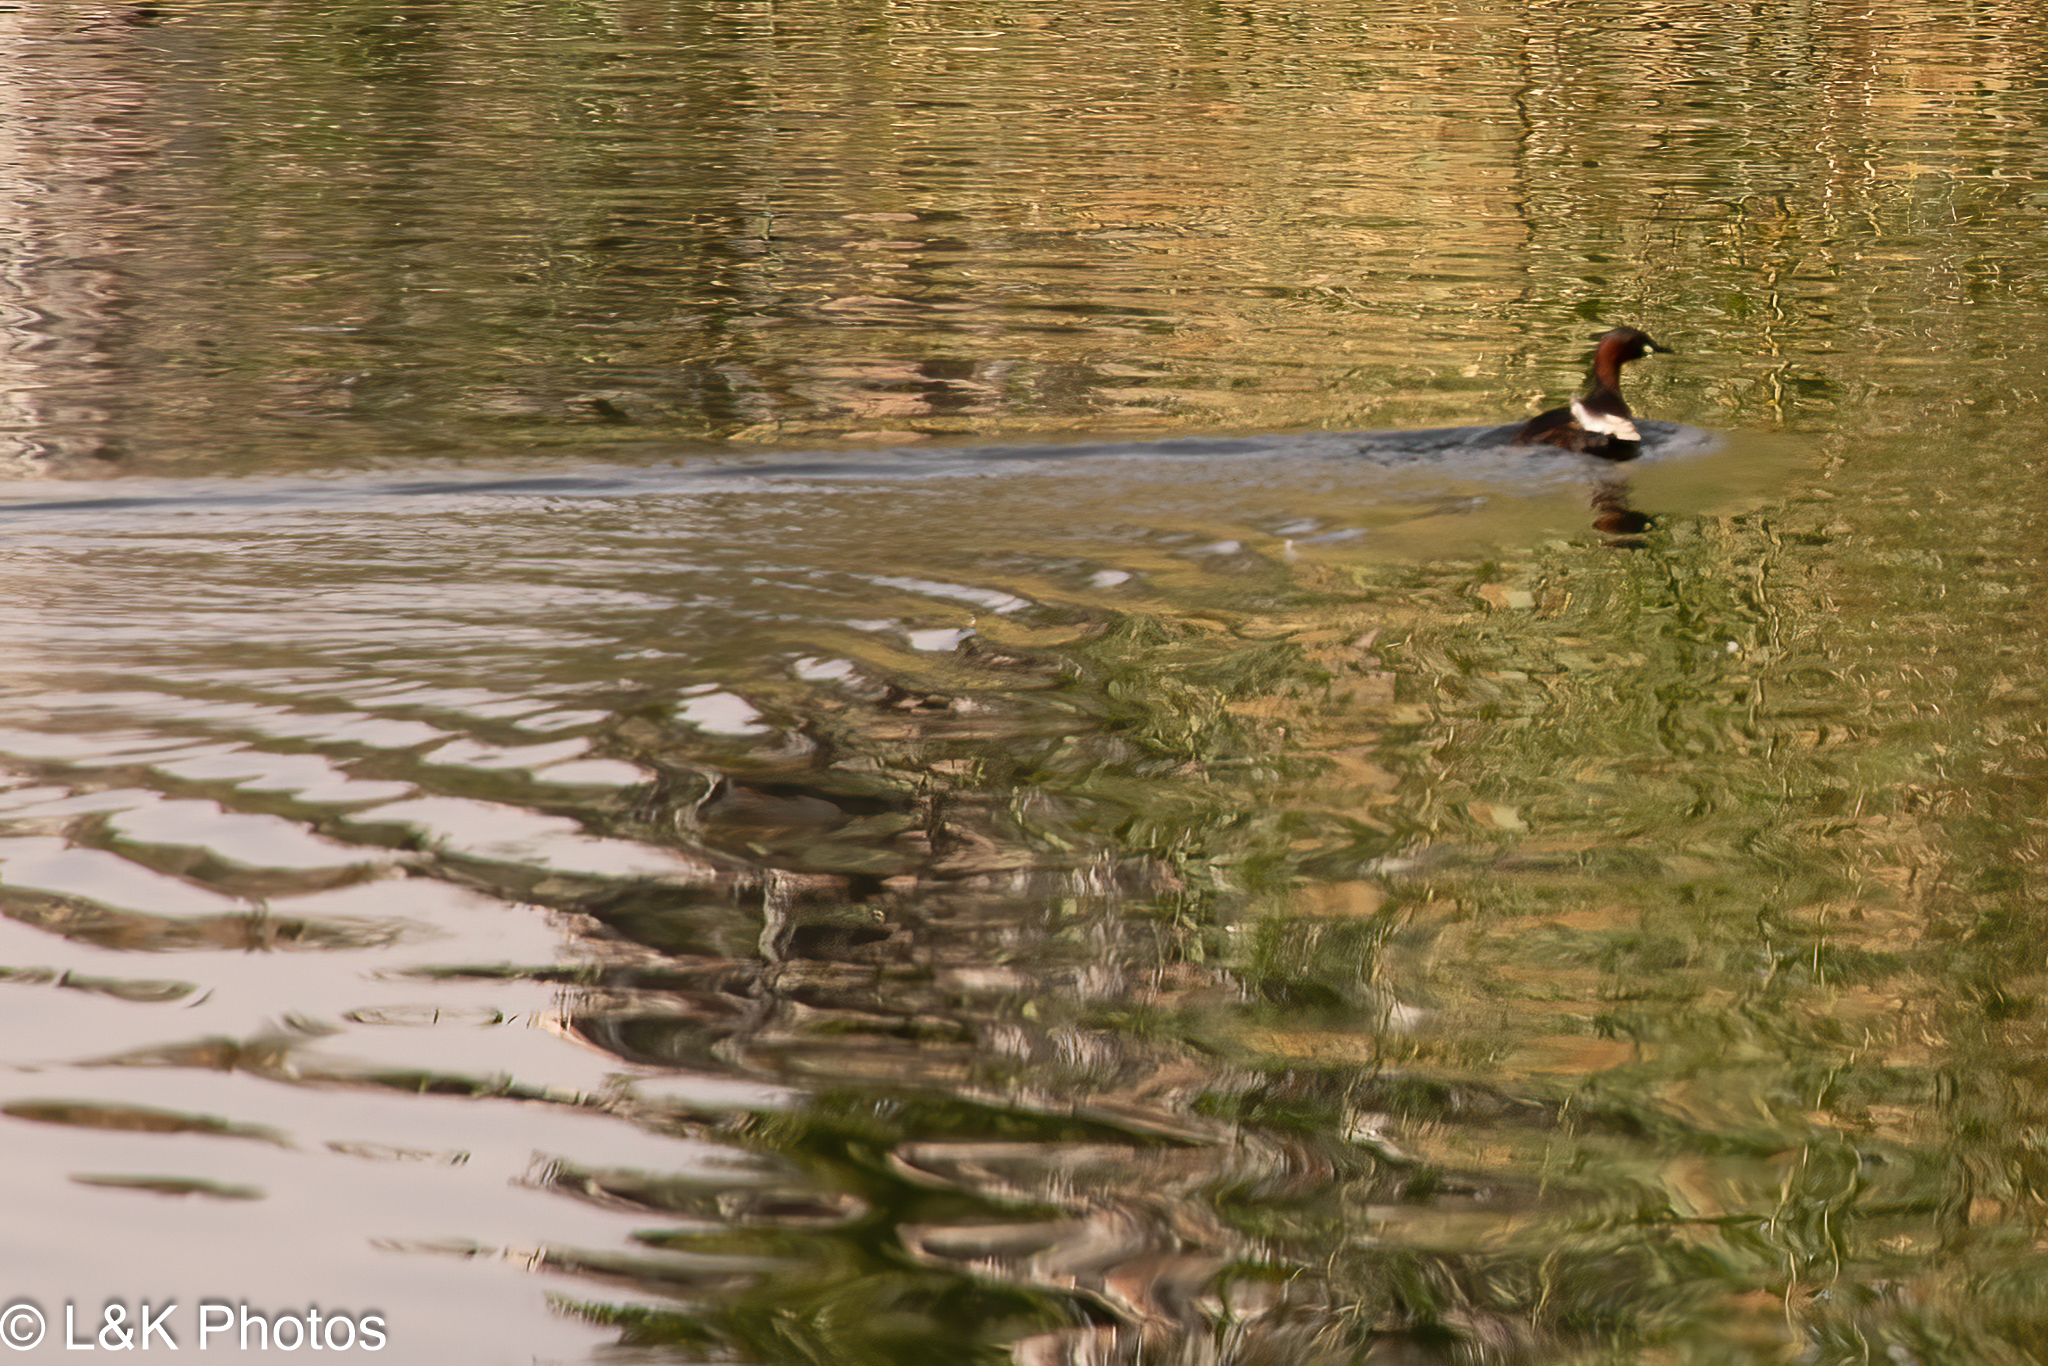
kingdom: Animalia
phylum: Chordata
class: Aves
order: Podicipediformes
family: Podicipedidae
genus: Tachybaptus
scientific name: Tachybaptus ruficollis
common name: Little grebe
